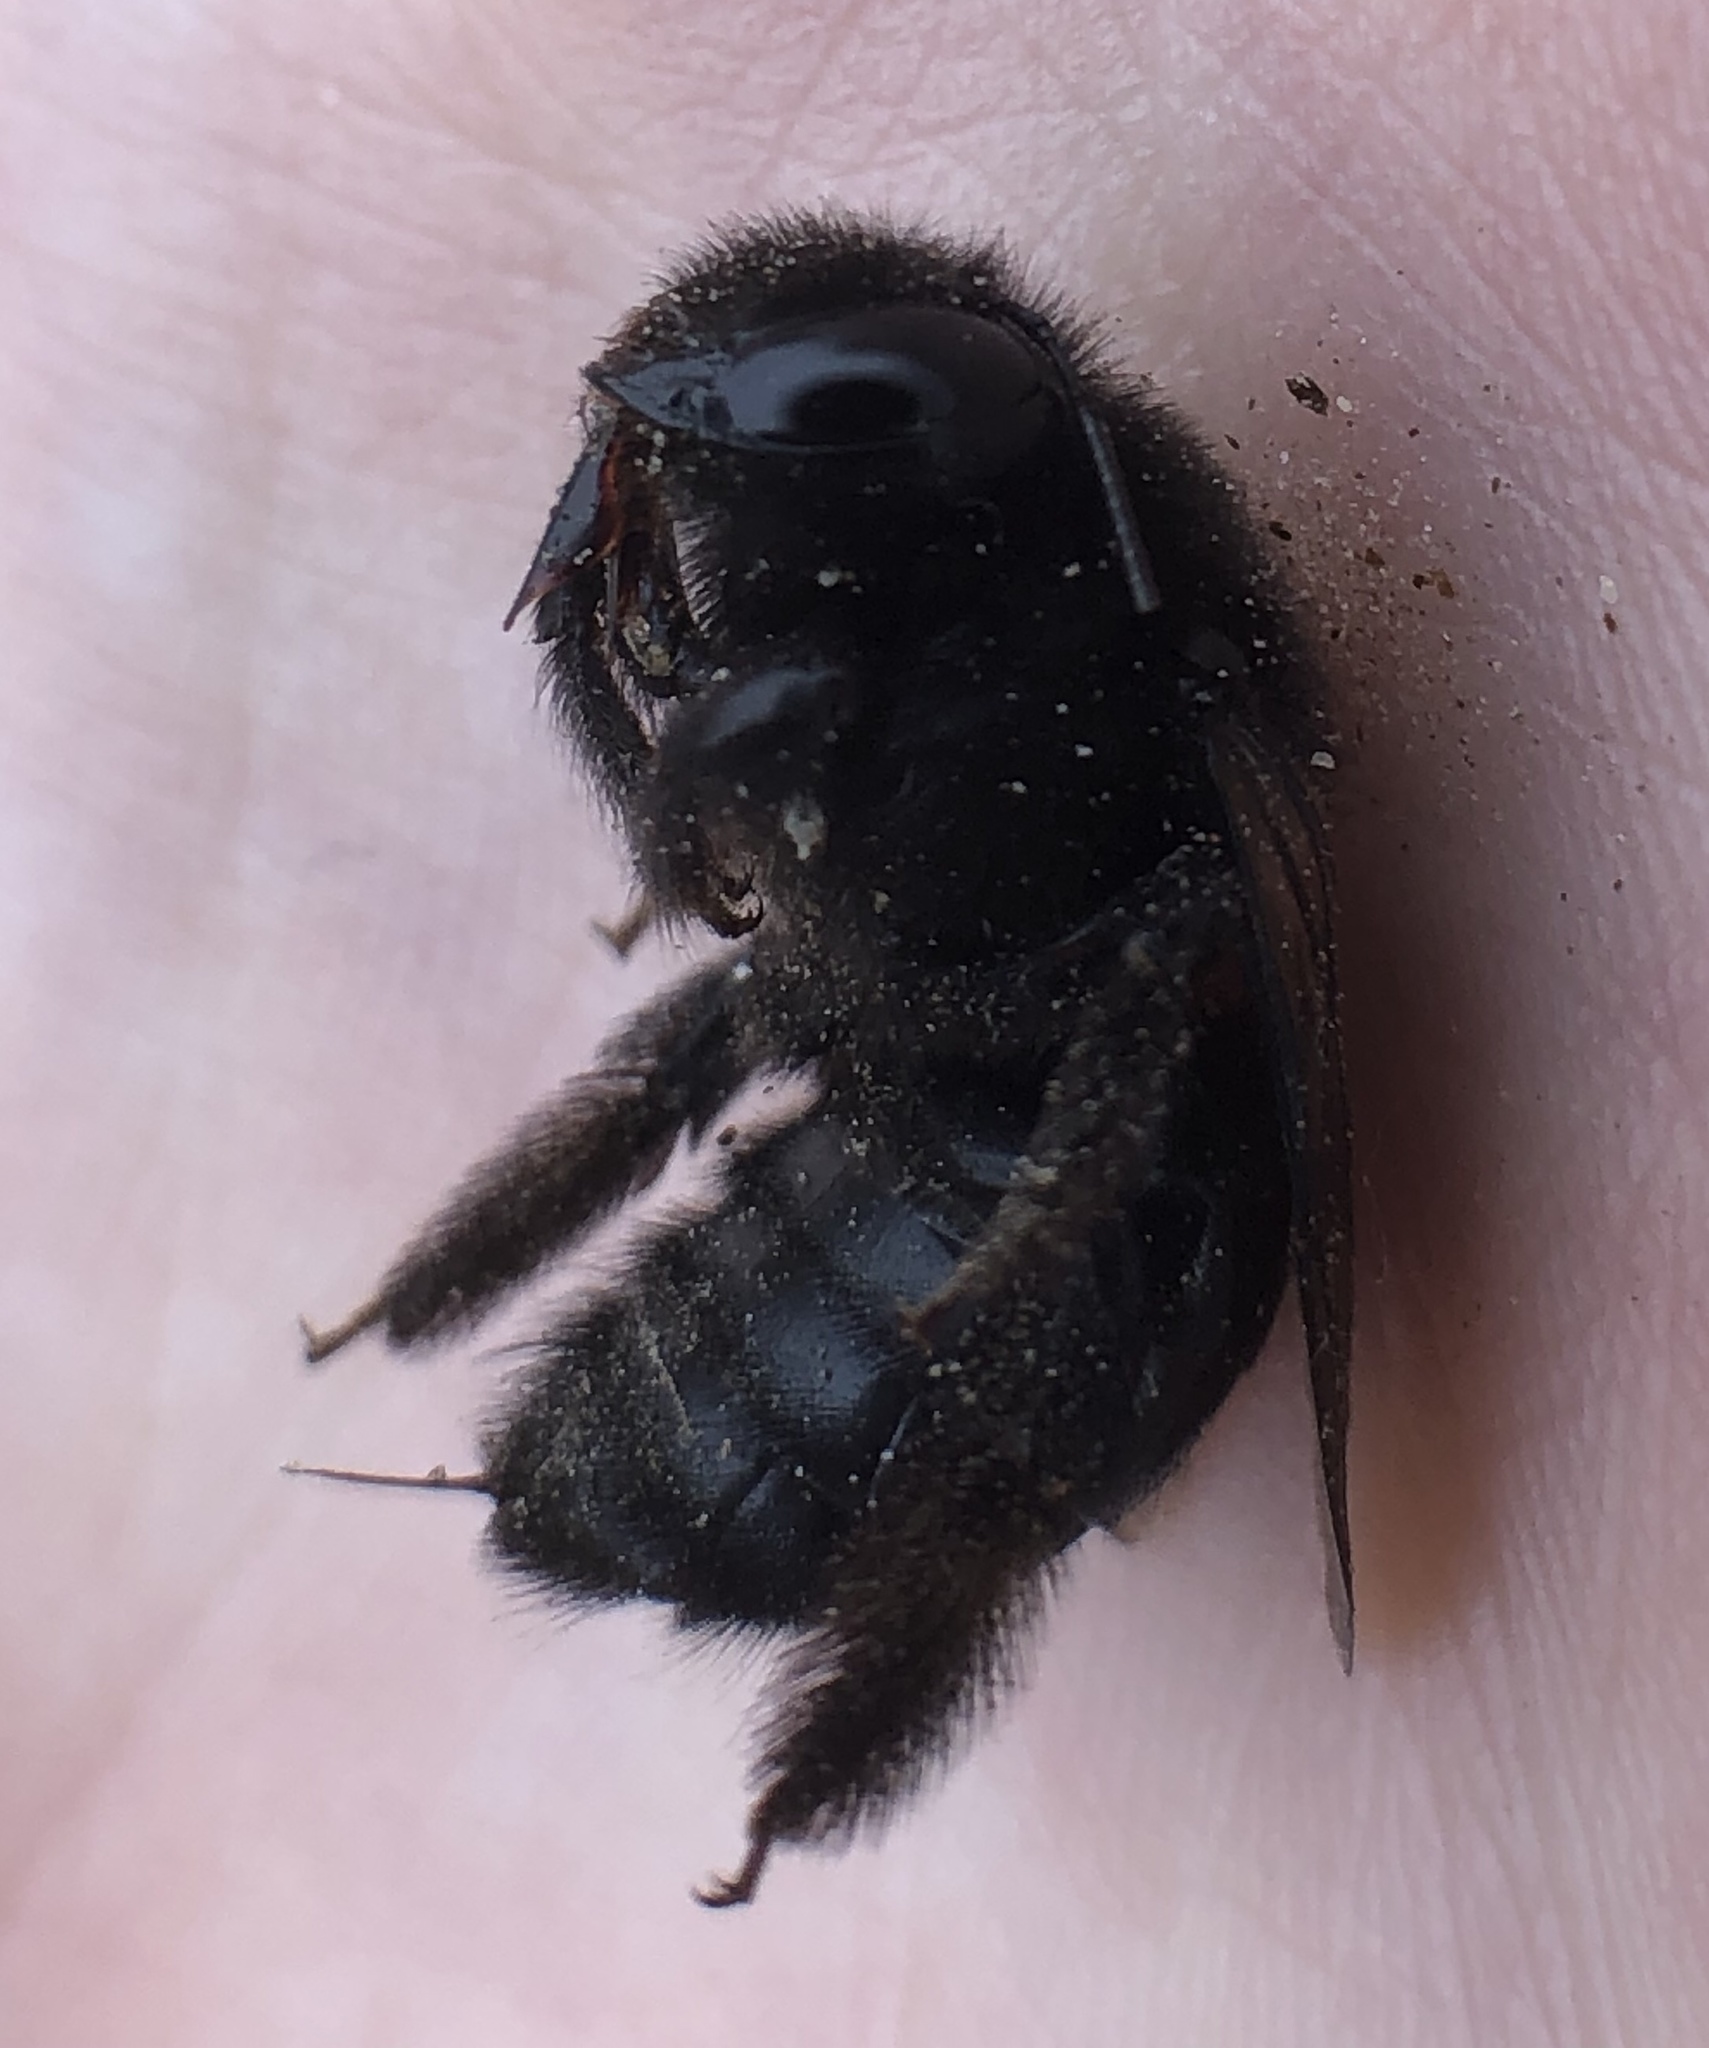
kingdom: Animalia
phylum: Arthropoda
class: Insecta
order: Hymenoptera
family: Apidae
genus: Xylocopa
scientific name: Xylocopa sonorina
